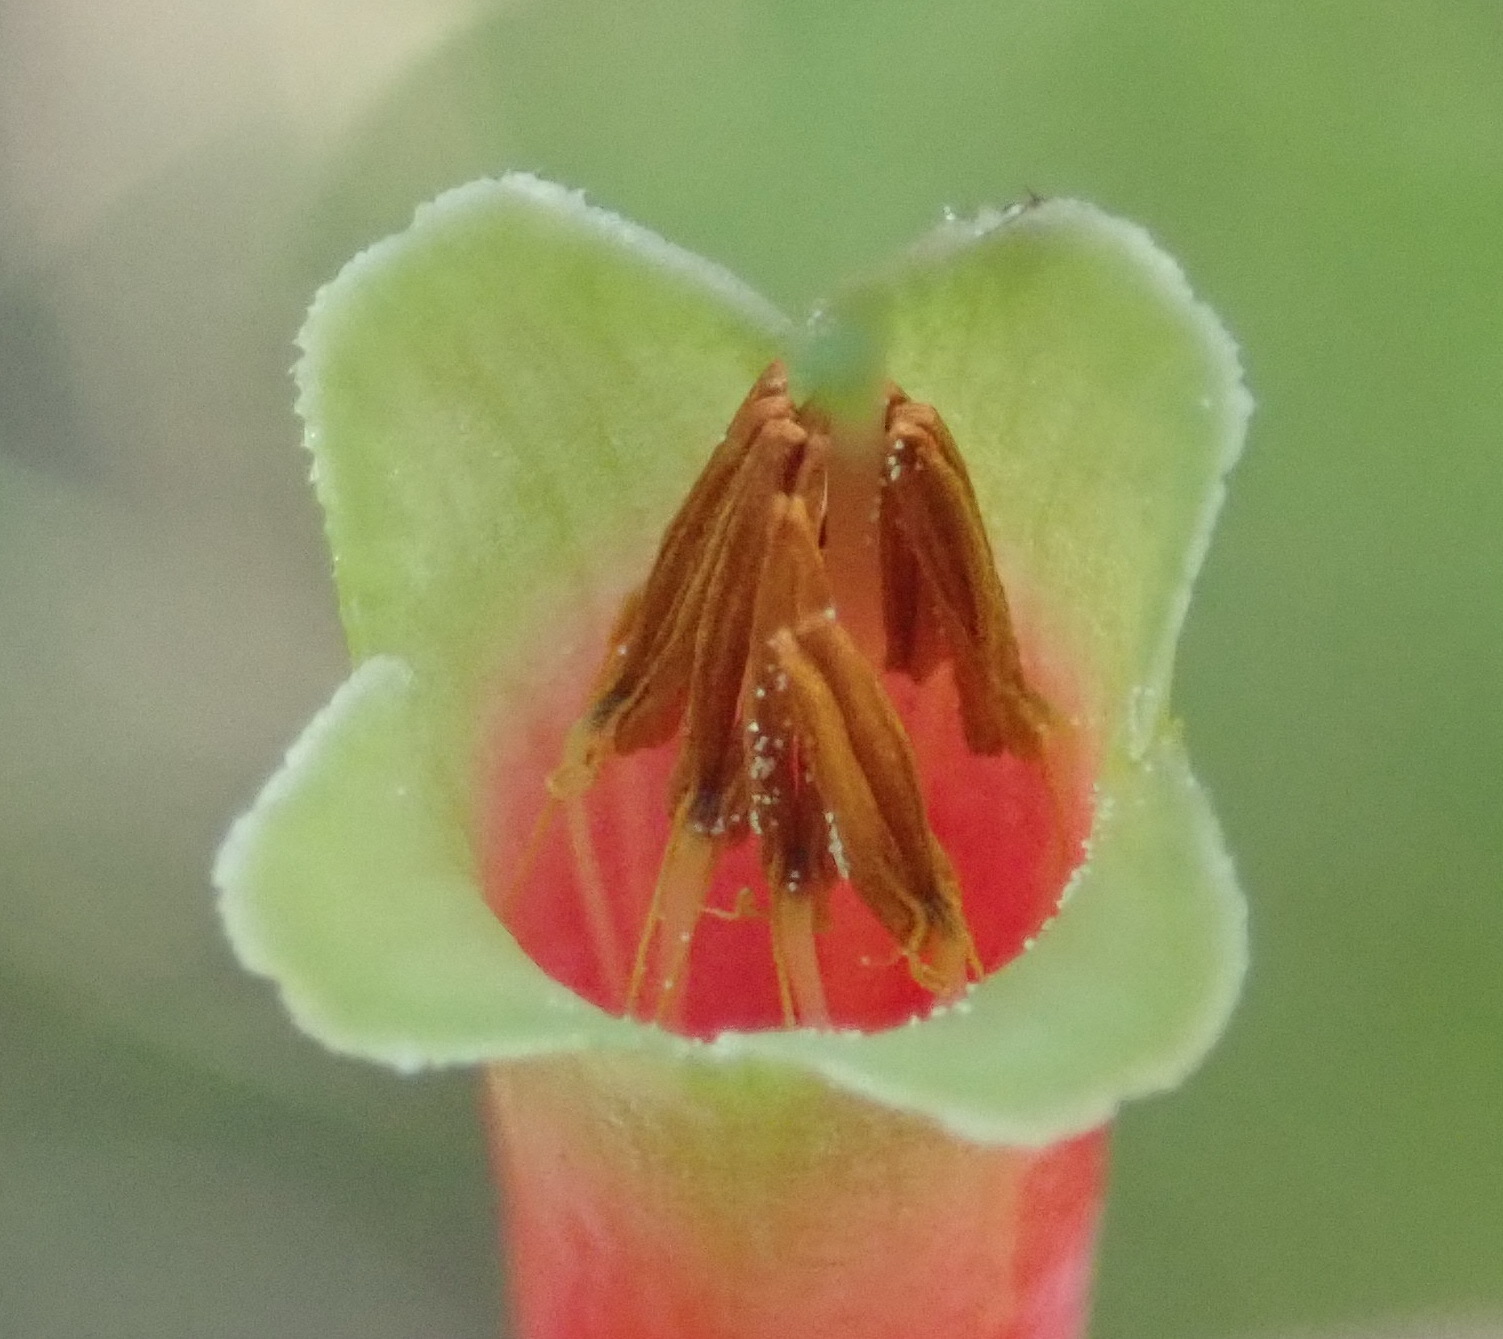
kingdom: Plantae
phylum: Tracheophyta
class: Magnoliopsida
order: Ericales
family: Ericaceae
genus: Erica
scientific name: Erica discolor
